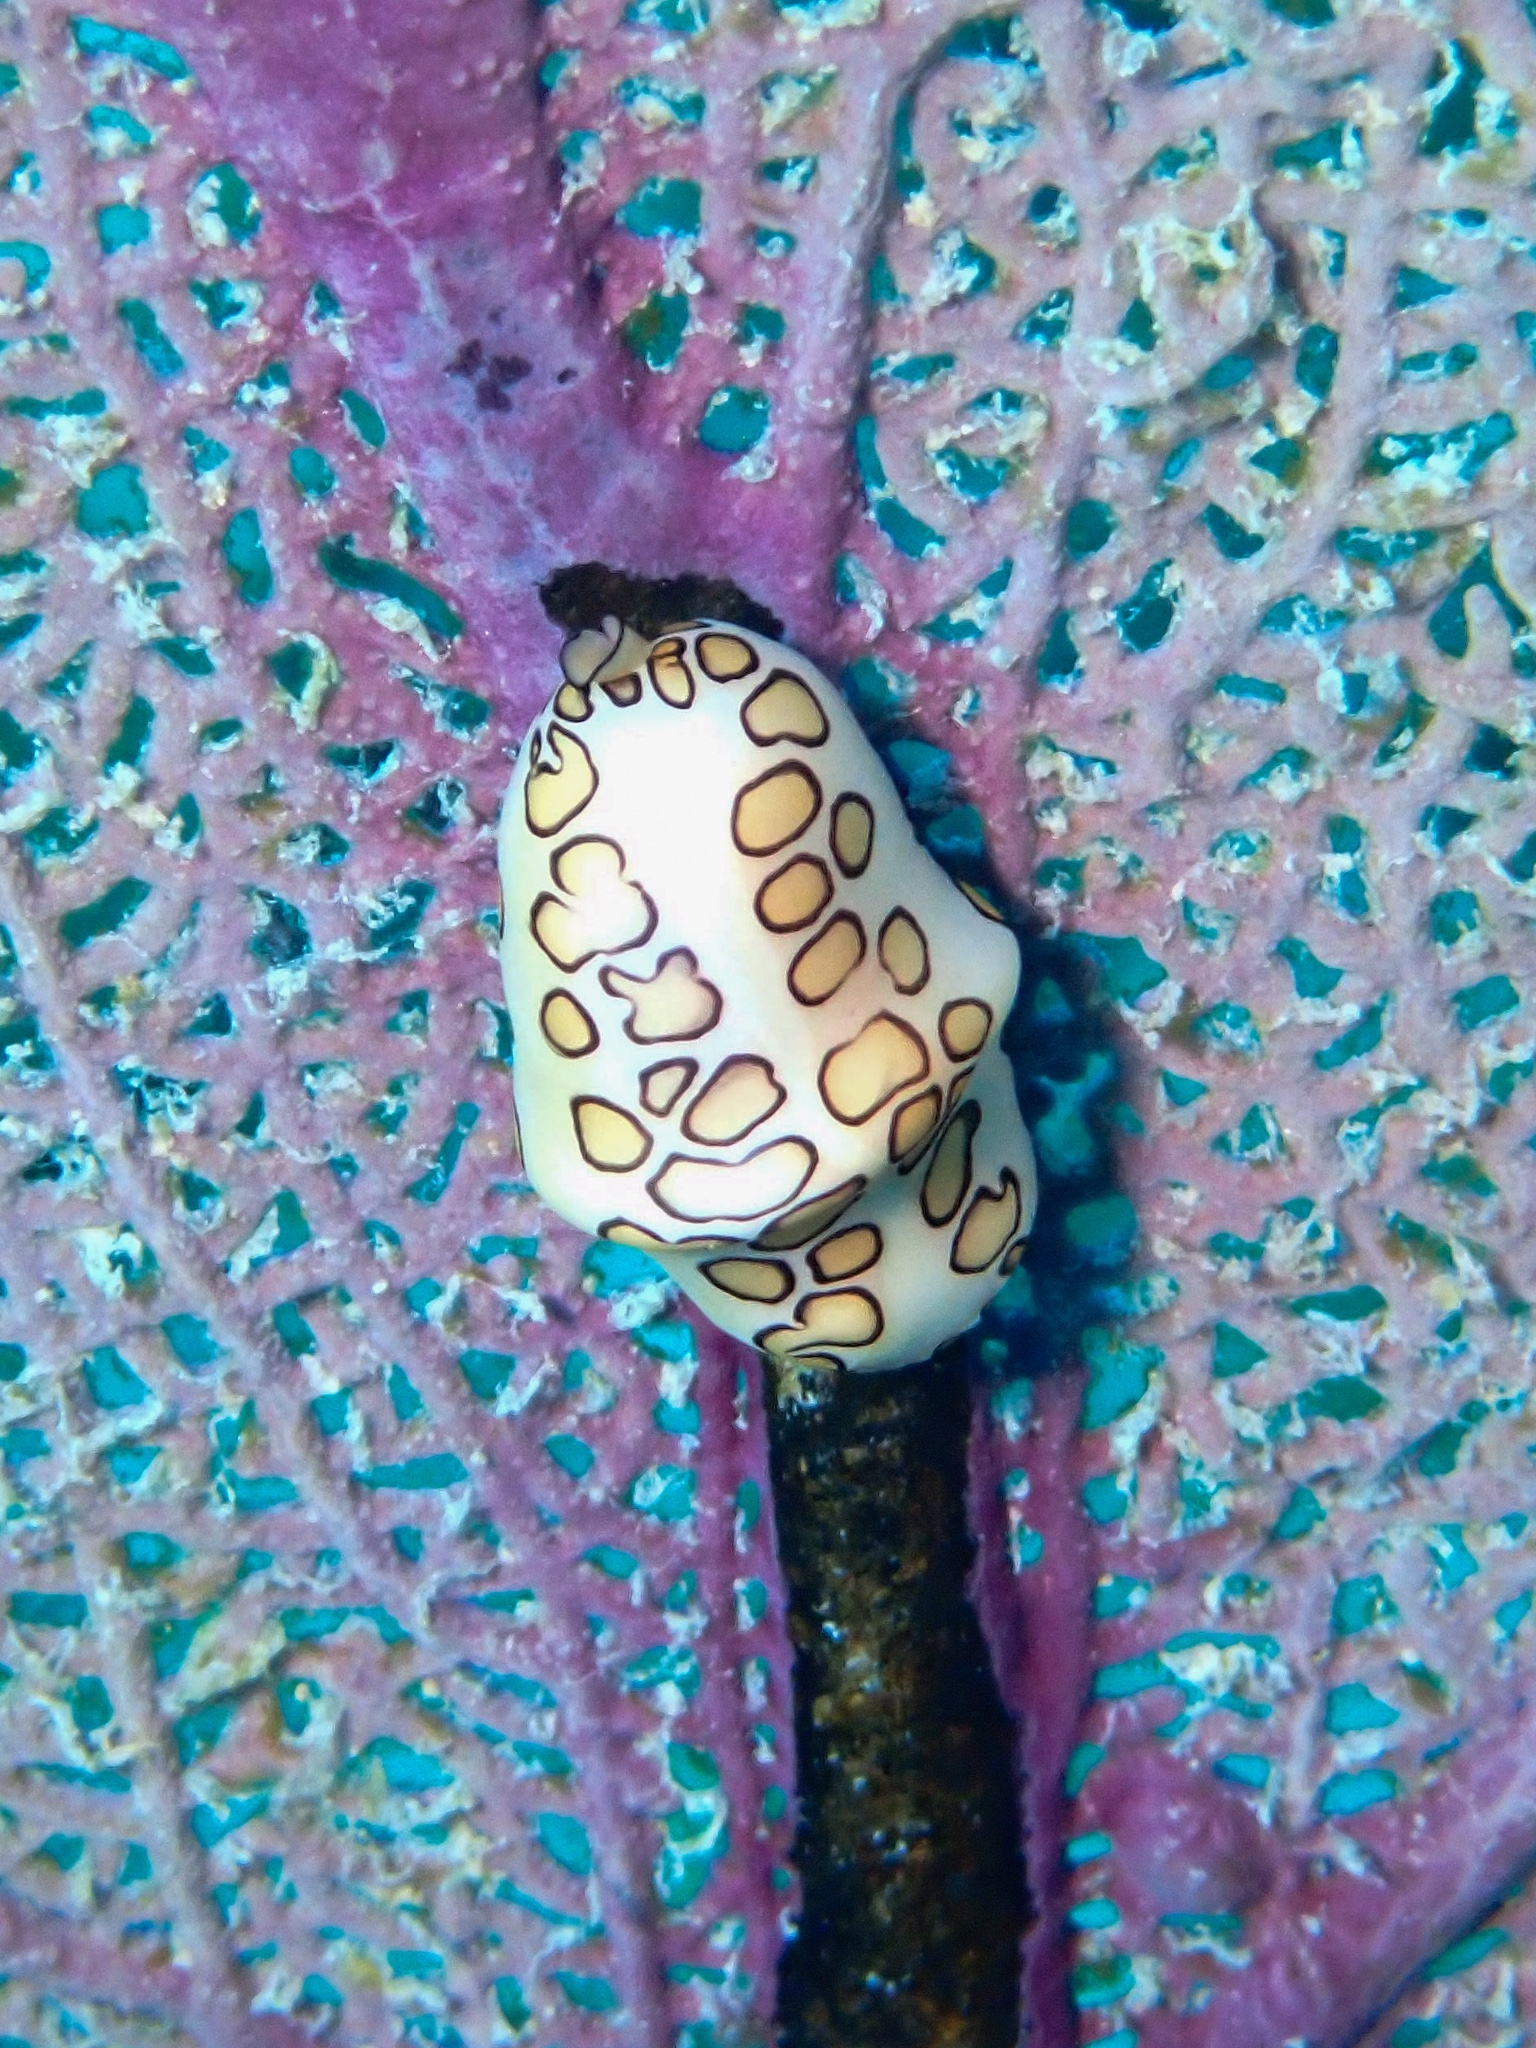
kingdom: Animalia
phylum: Mollusca
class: Gastropoda
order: Littorinimorpha
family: Ovulidae
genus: Cyphoma
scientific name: Cyphoma gibbosum
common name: Flamingo tongue
